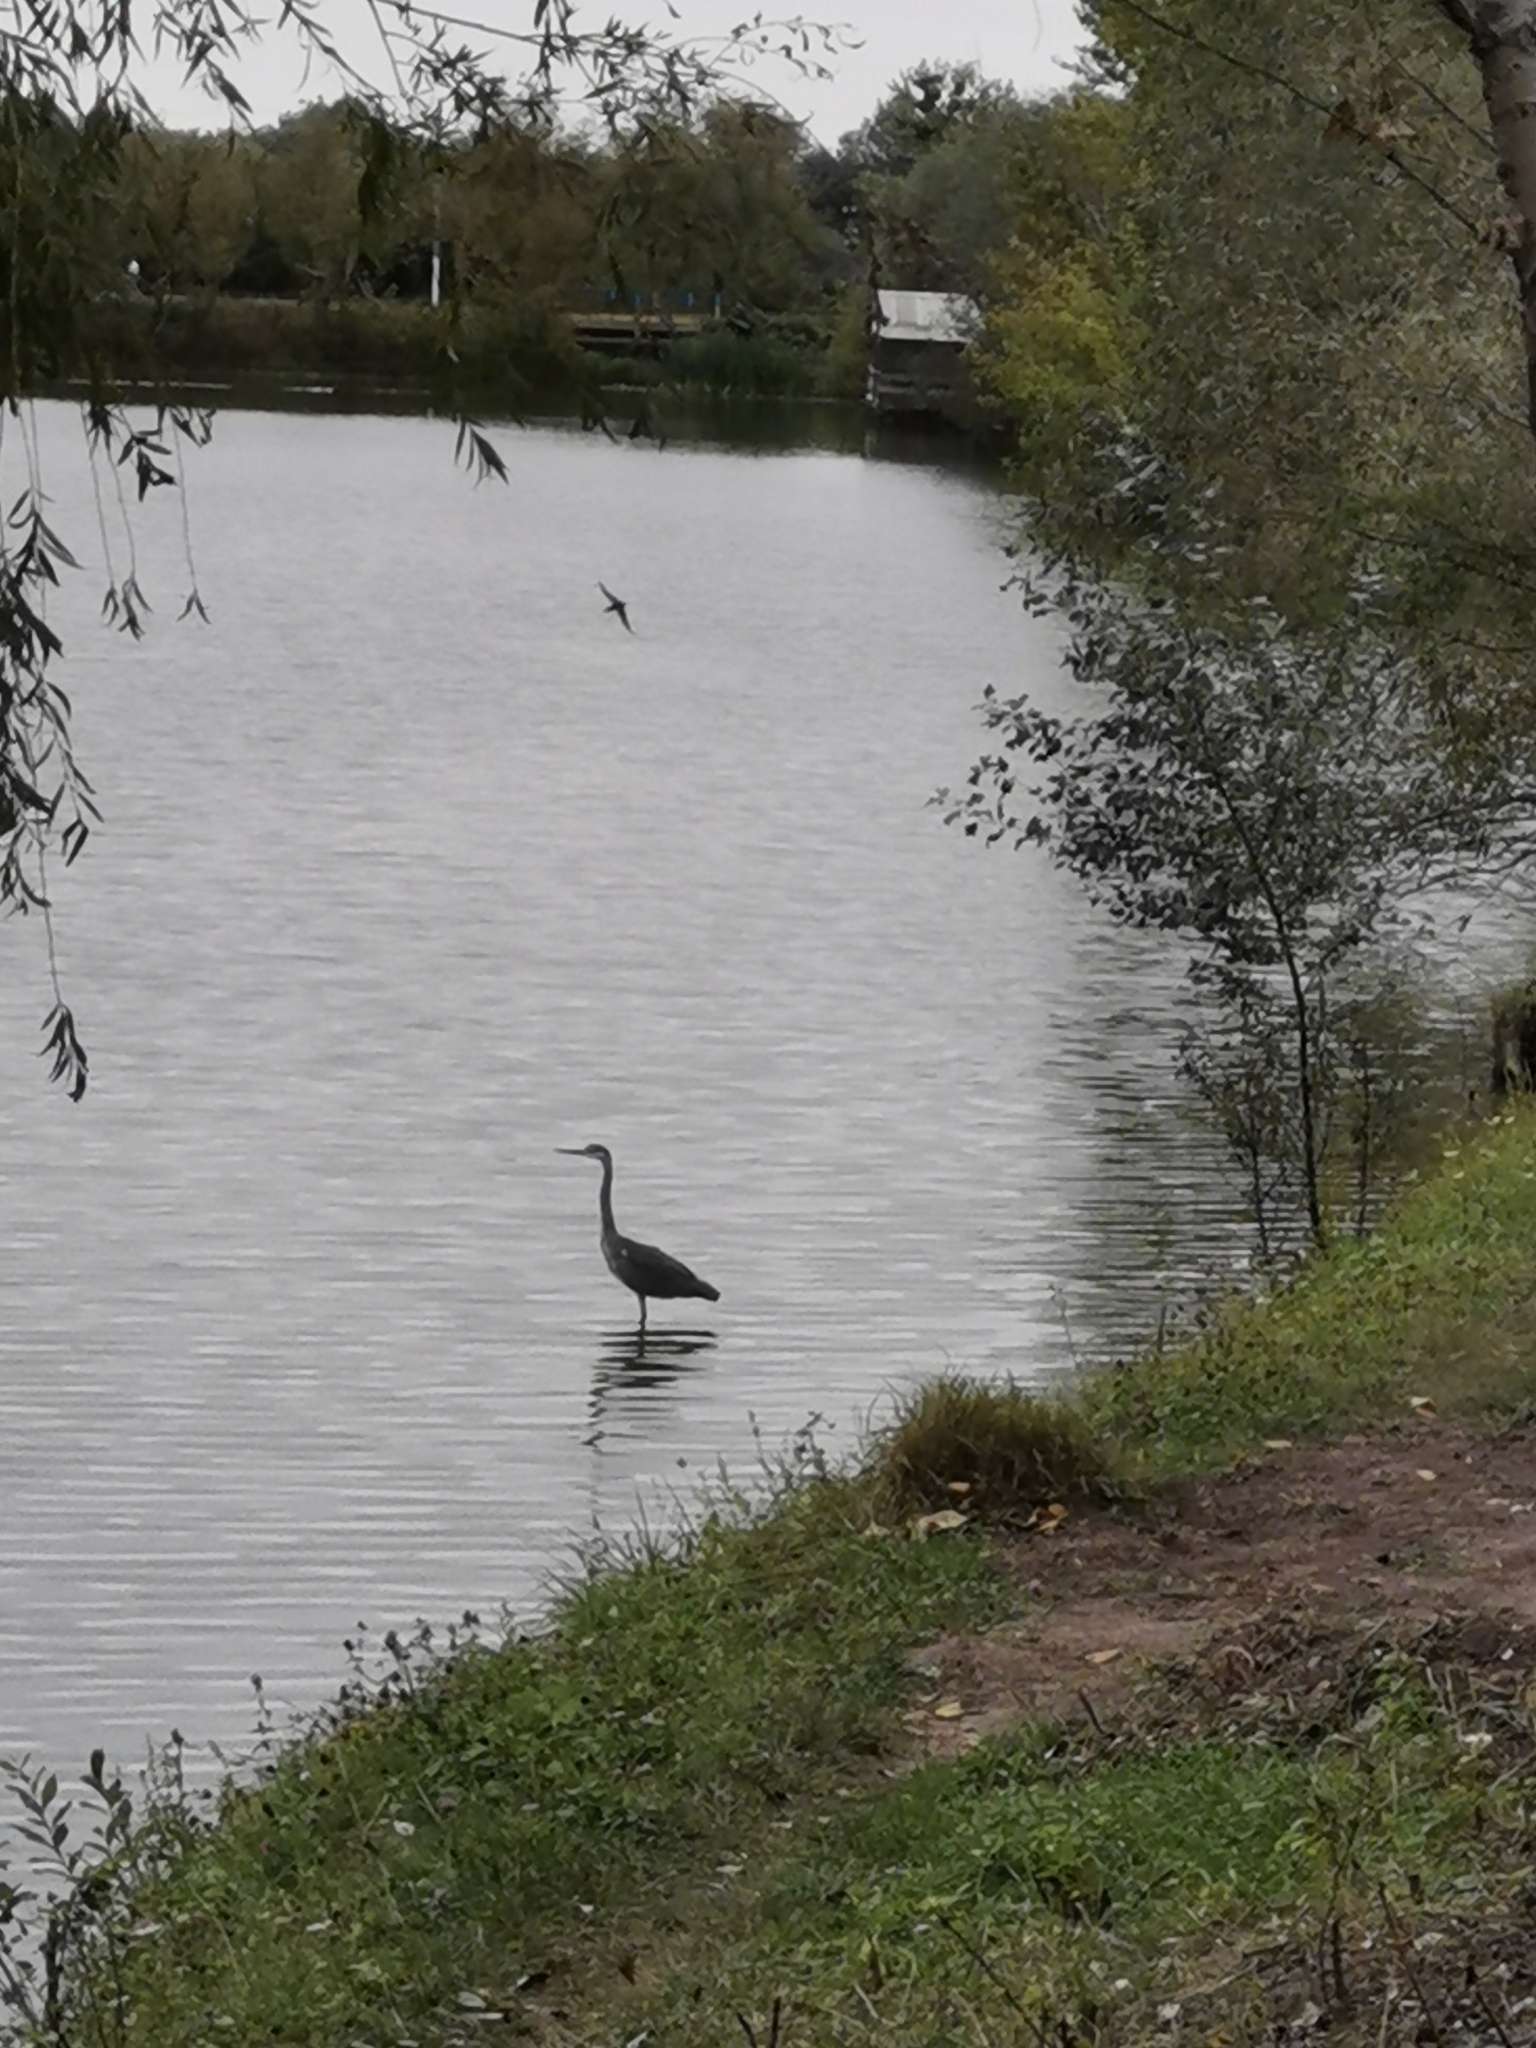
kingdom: Animalia
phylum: Chordata
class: Aves
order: Pelecaniformes
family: Ardeidae
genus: Ardea
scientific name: Ardea cinerea
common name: Grey heron
